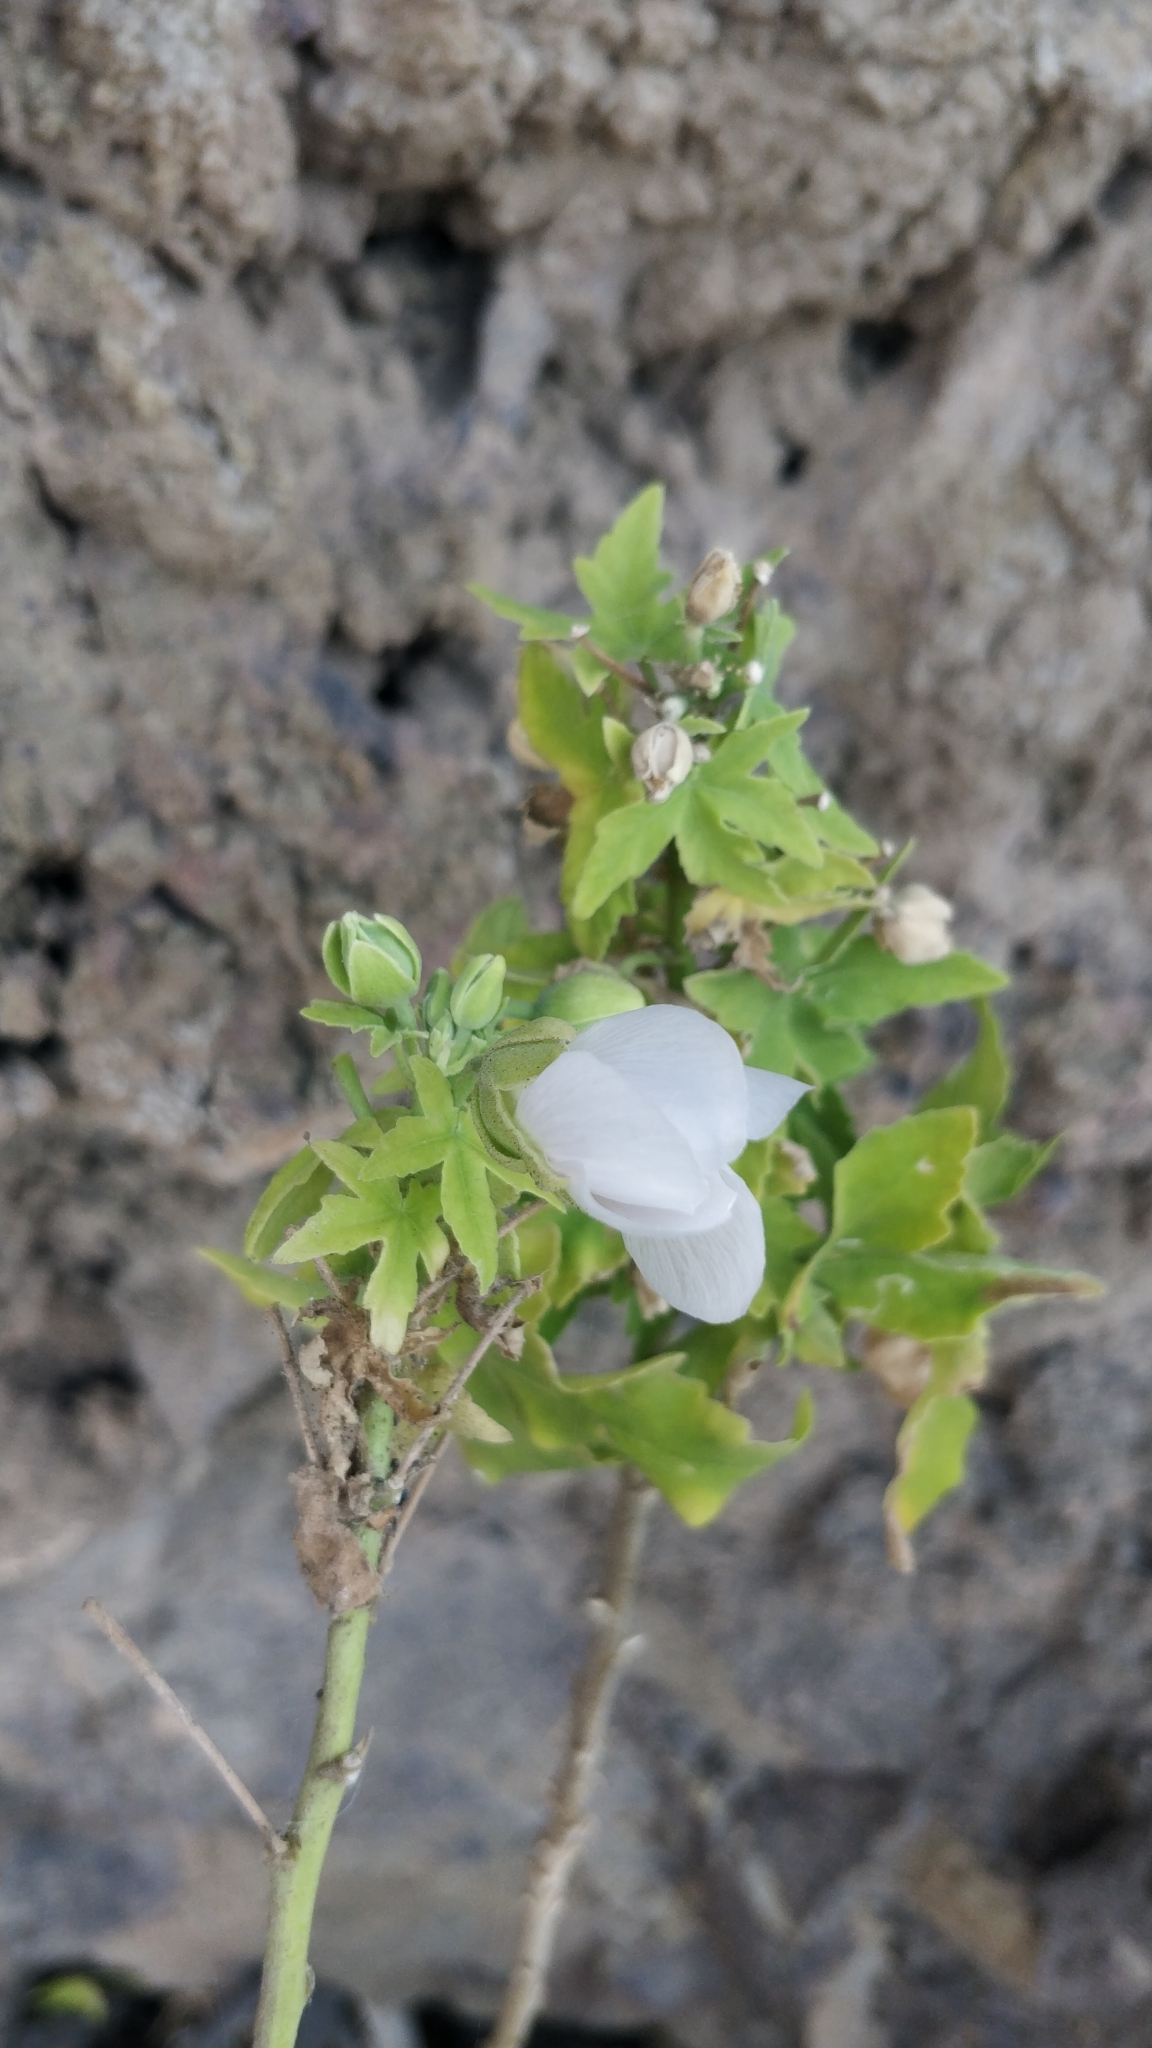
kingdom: Plantae
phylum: Tracheophyta
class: Magnoliopsida
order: Malvales
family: Malvaceae
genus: Malva
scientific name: Malva acerifolia
